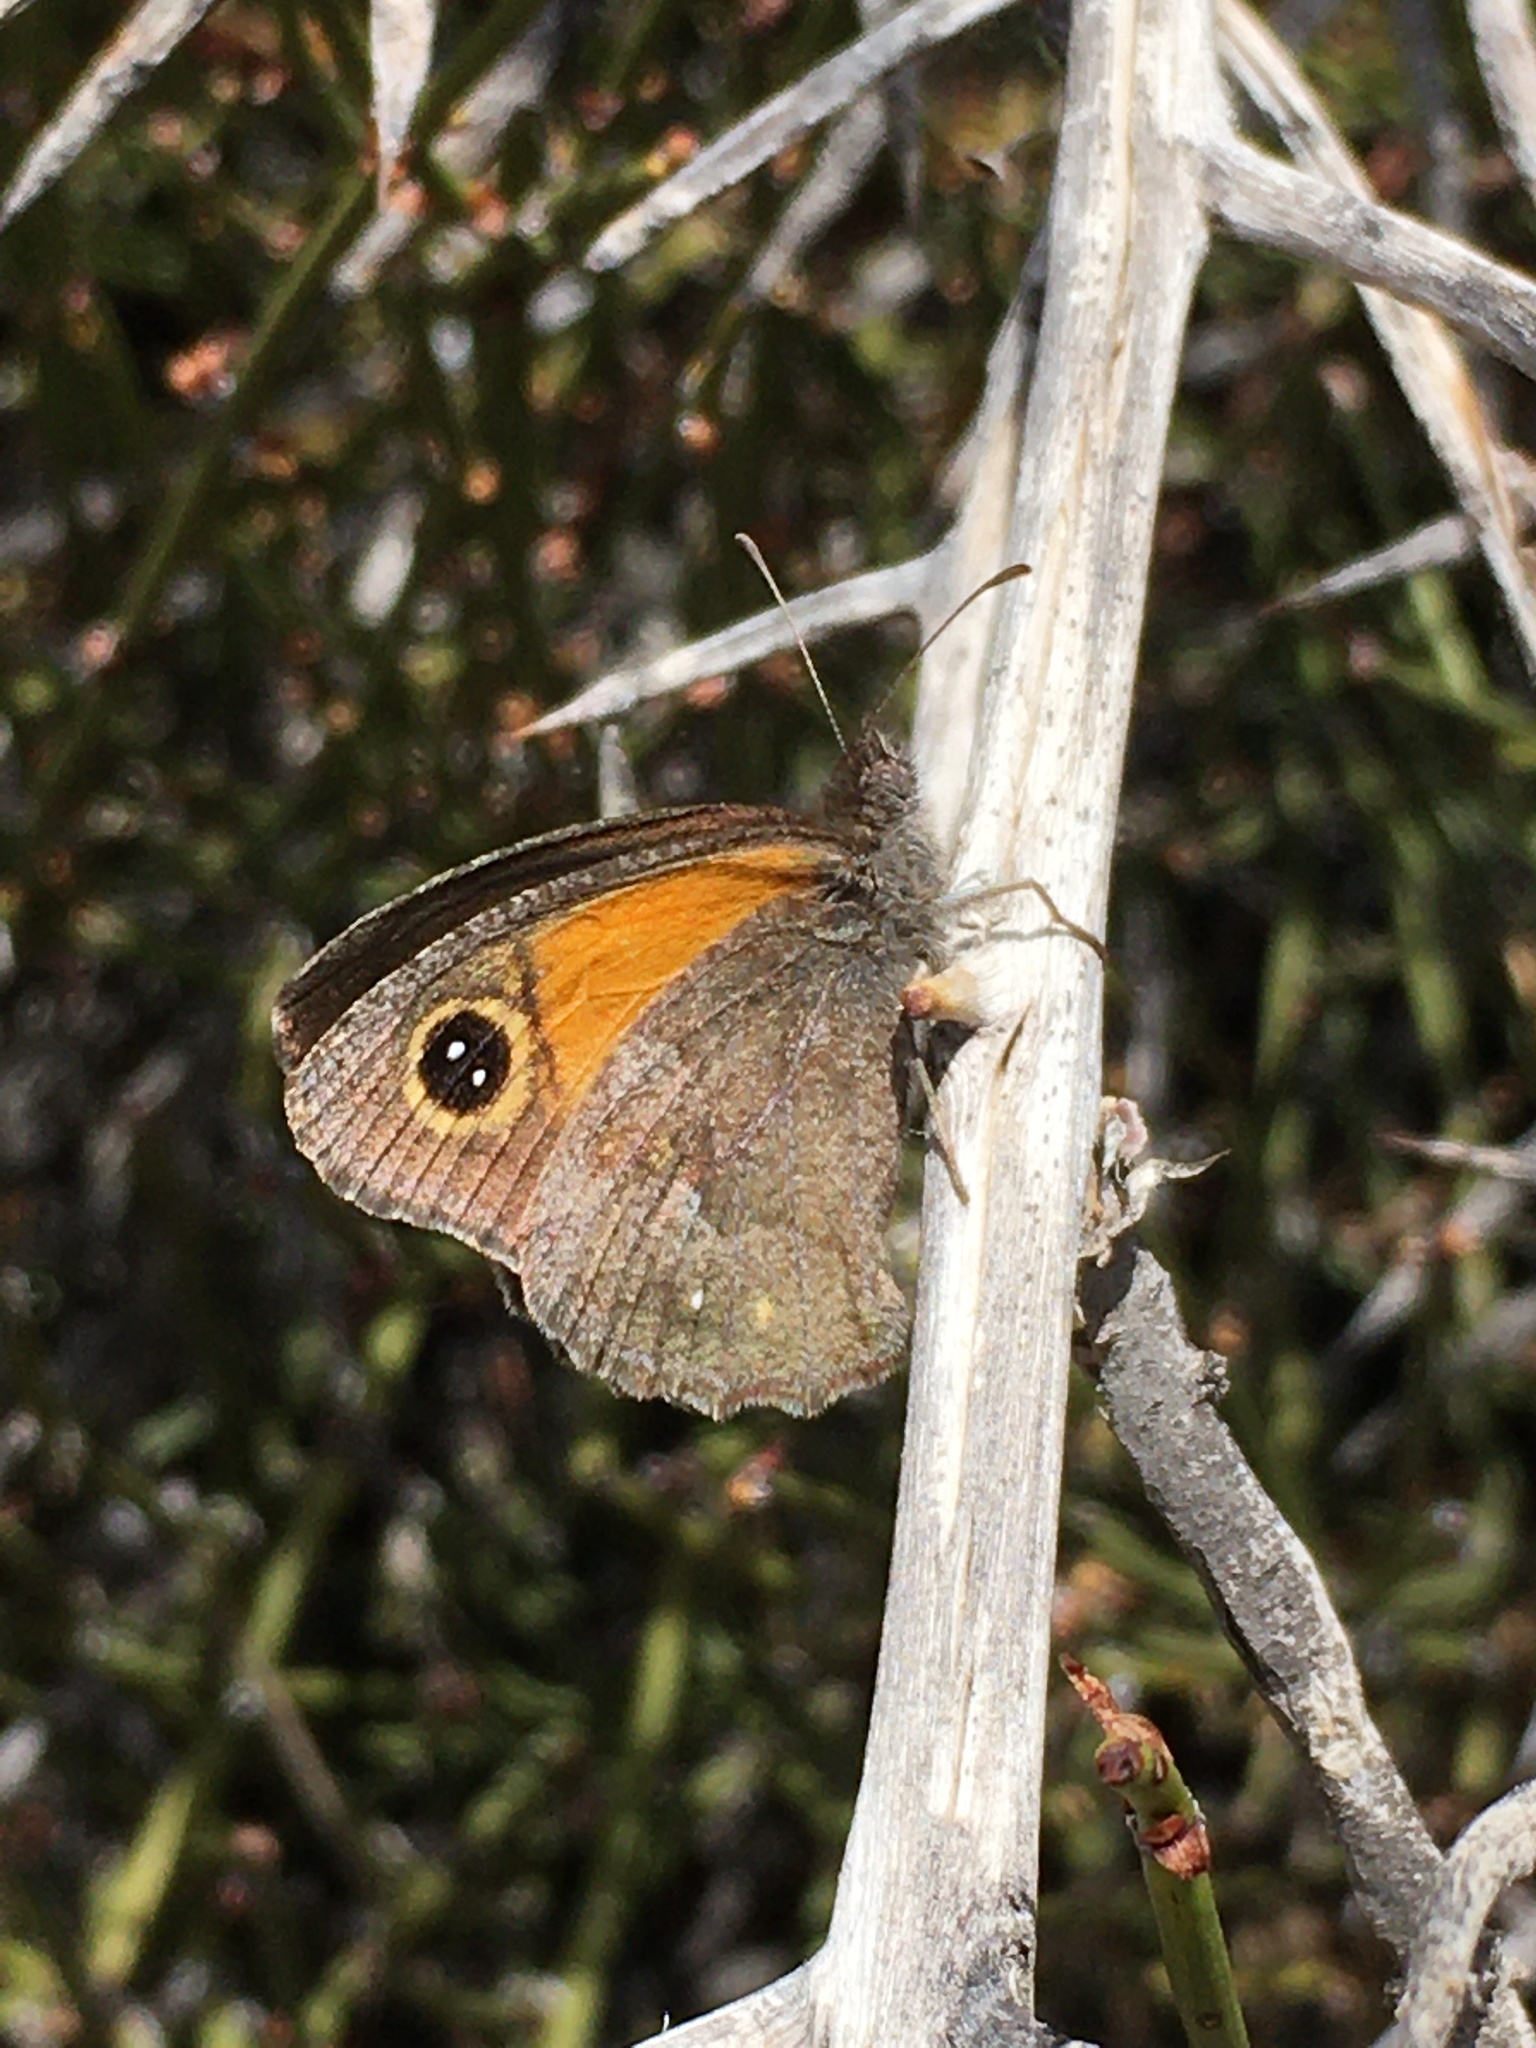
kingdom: Animalia
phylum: Arthropoda
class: Insecta
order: Lepidoptera
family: Nymphalidae
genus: Auca
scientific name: Auca coctei
